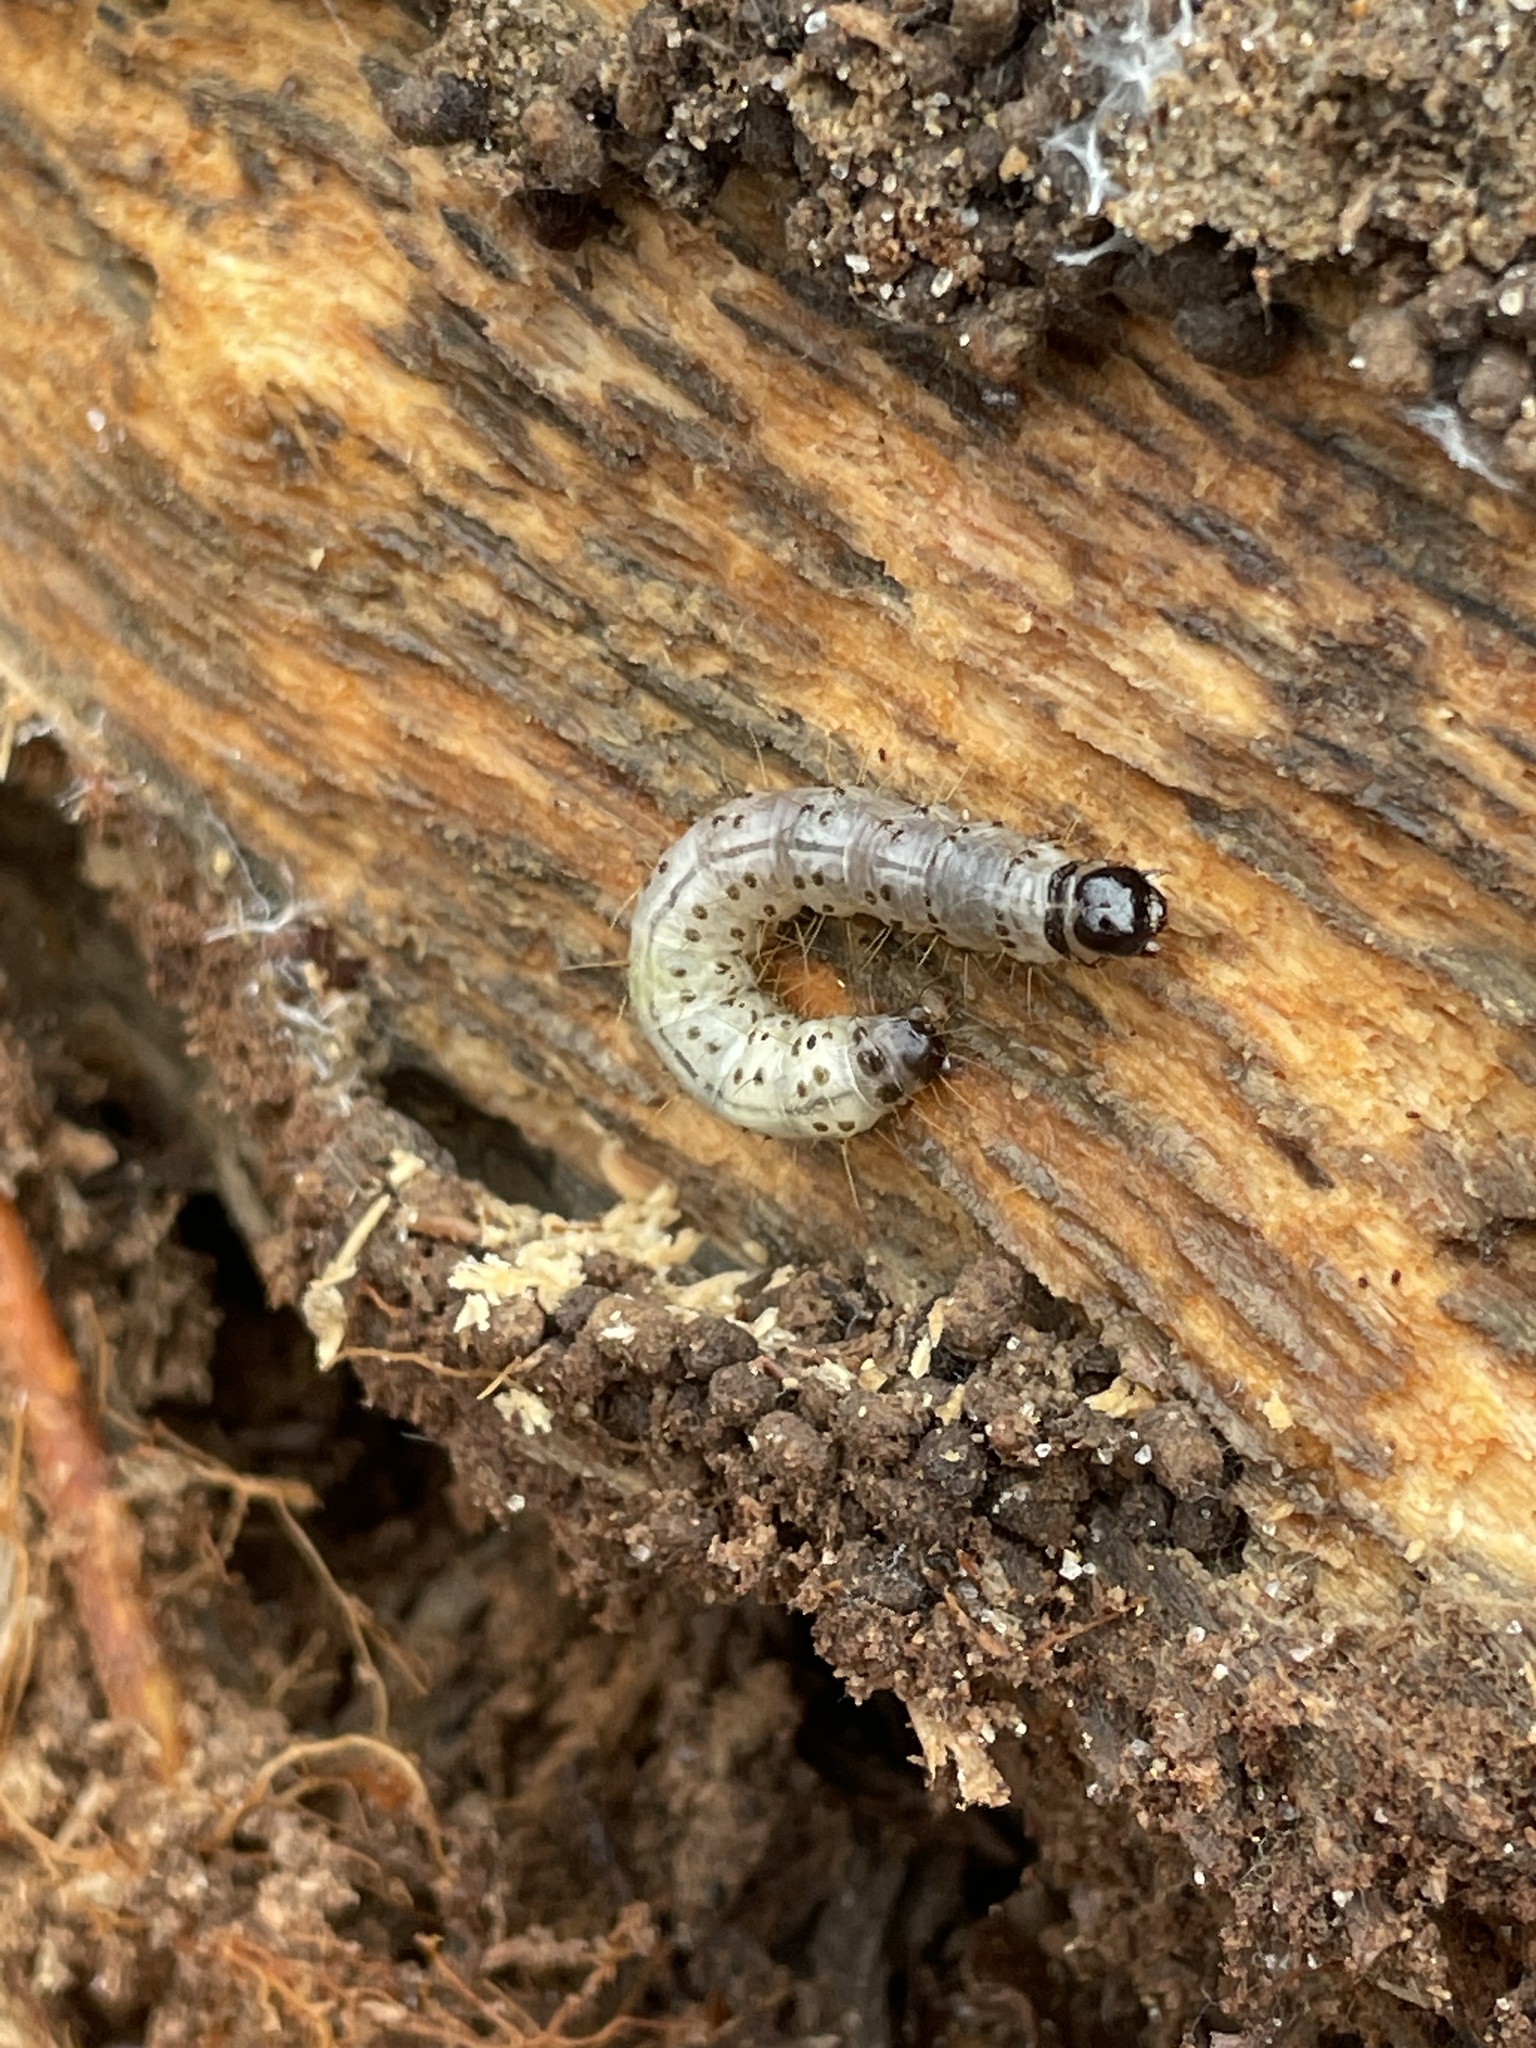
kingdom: Animalia
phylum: Arthropoda
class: Insecta
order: Lepidoptera
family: Erebidae
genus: Scolecocampa
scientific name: Scolecocampa liburna
